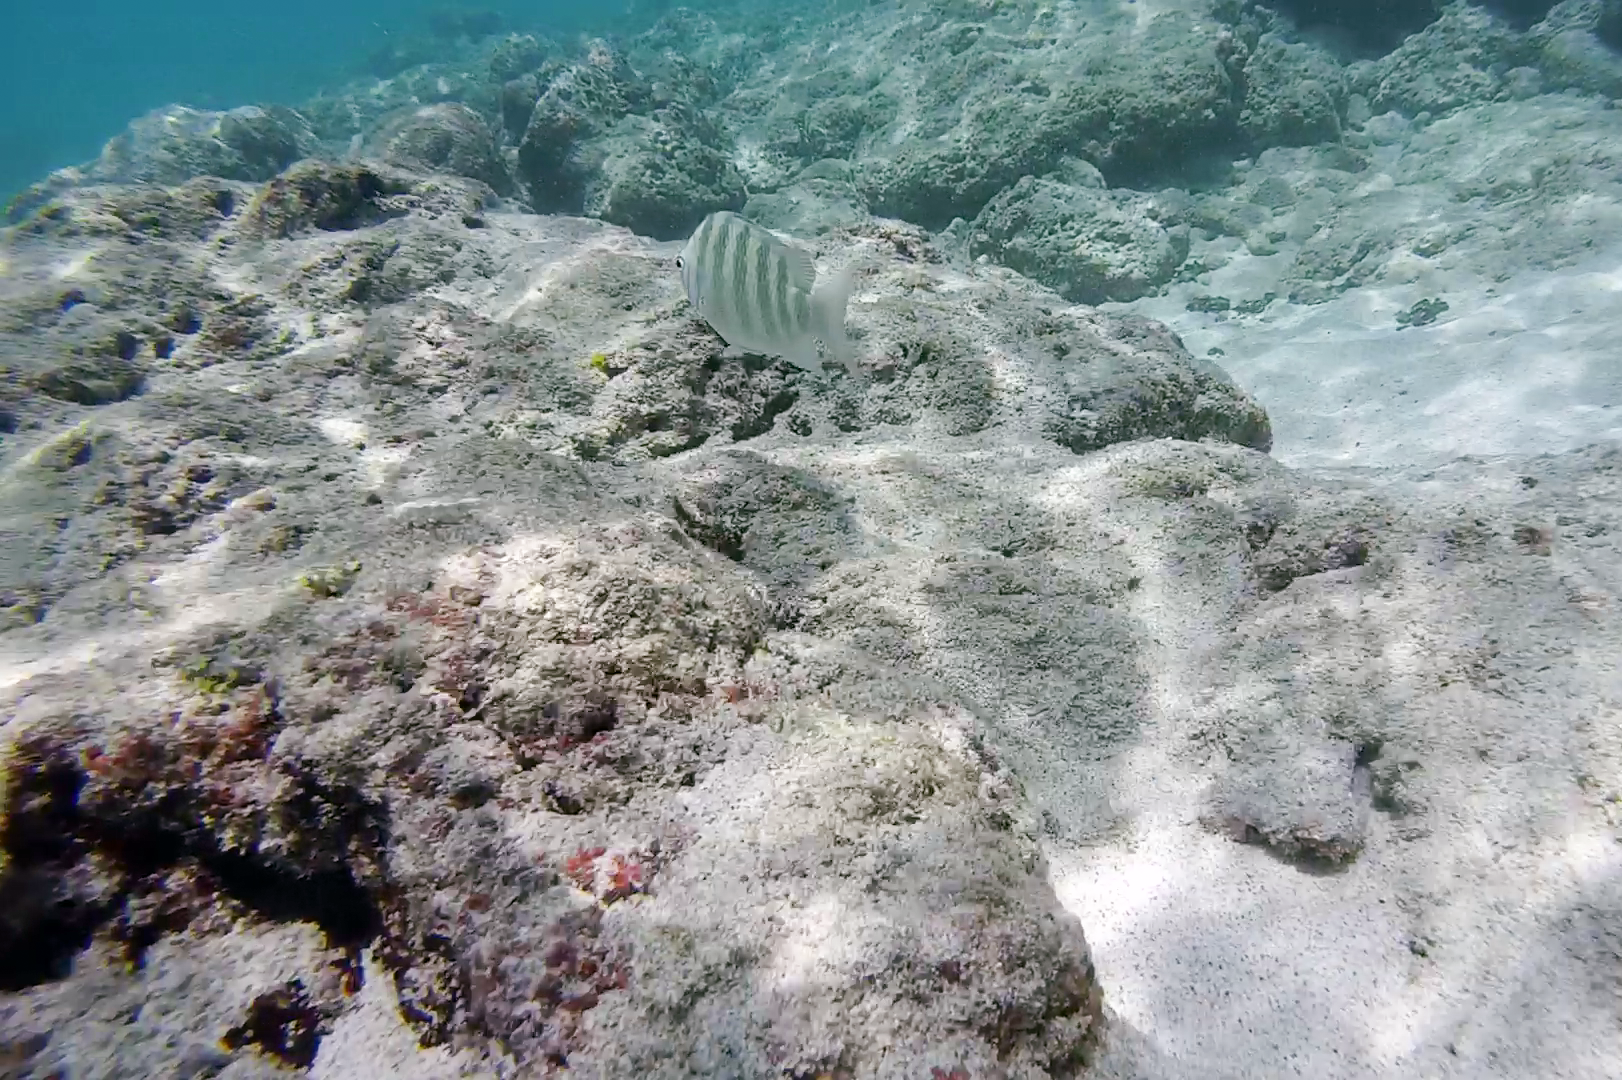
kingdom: Animalia
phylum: Chordata
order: Perciformes
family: Pomacentridae
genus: Abudefduf
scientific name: Abudefduf septemfasciatus
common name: Banded sergeant
